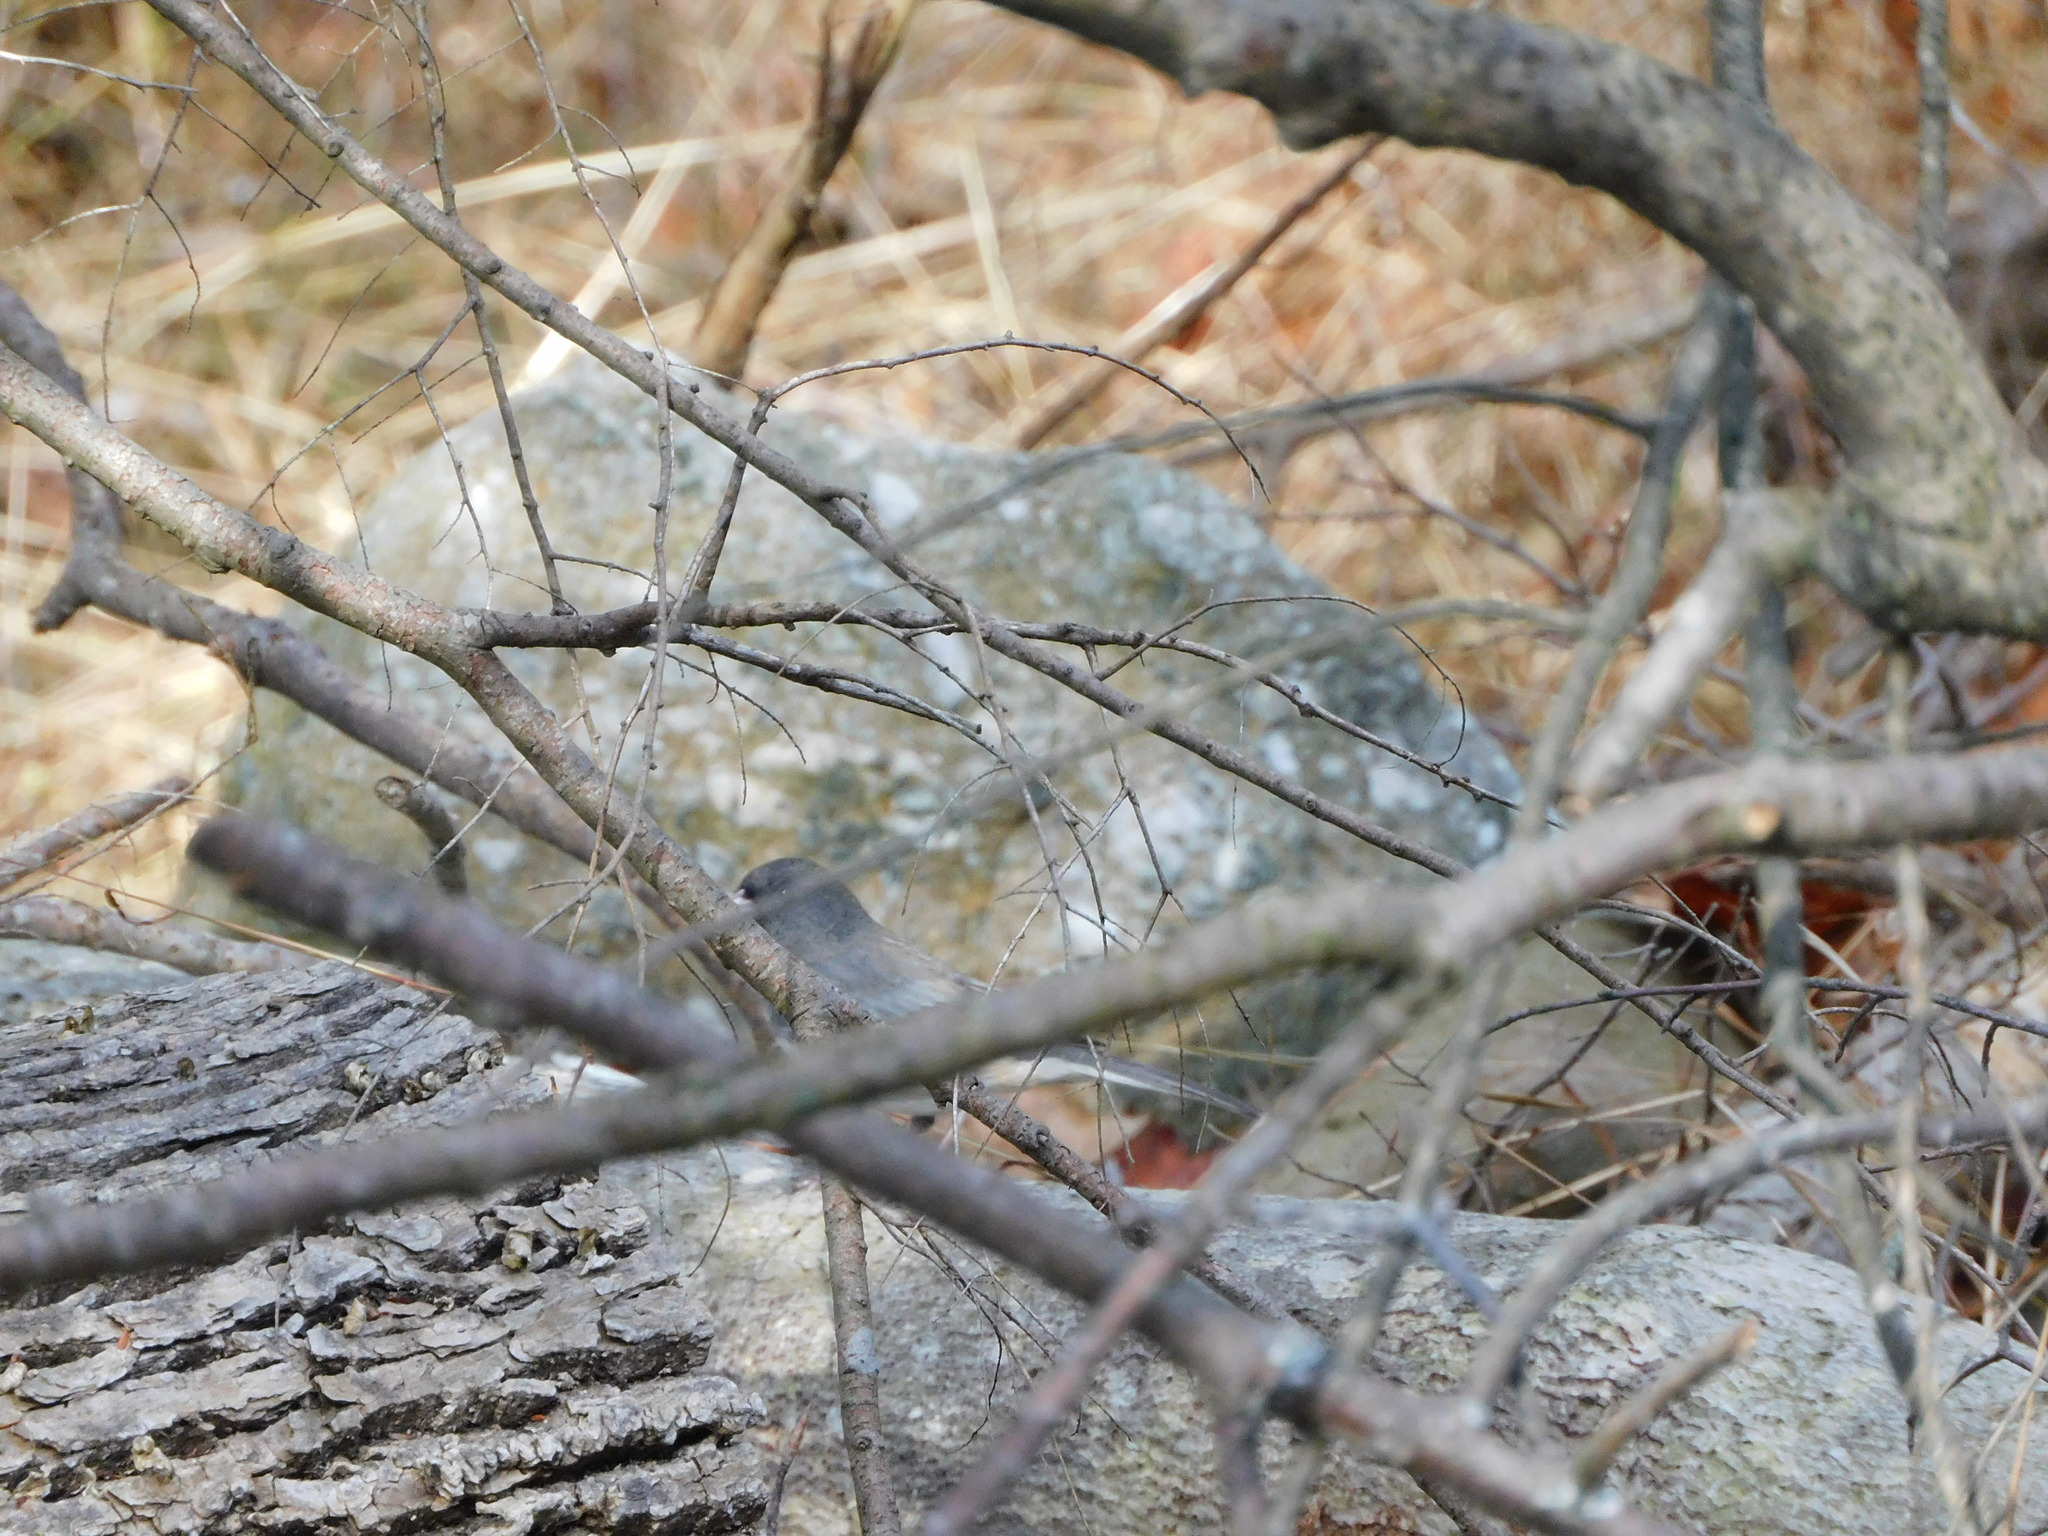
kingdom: Animalia
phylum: Chordata
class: Aves
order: Passeriformes
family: Passerellidae
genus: Junco
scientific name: Junco hyemalis
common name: Dark-eyed junco
